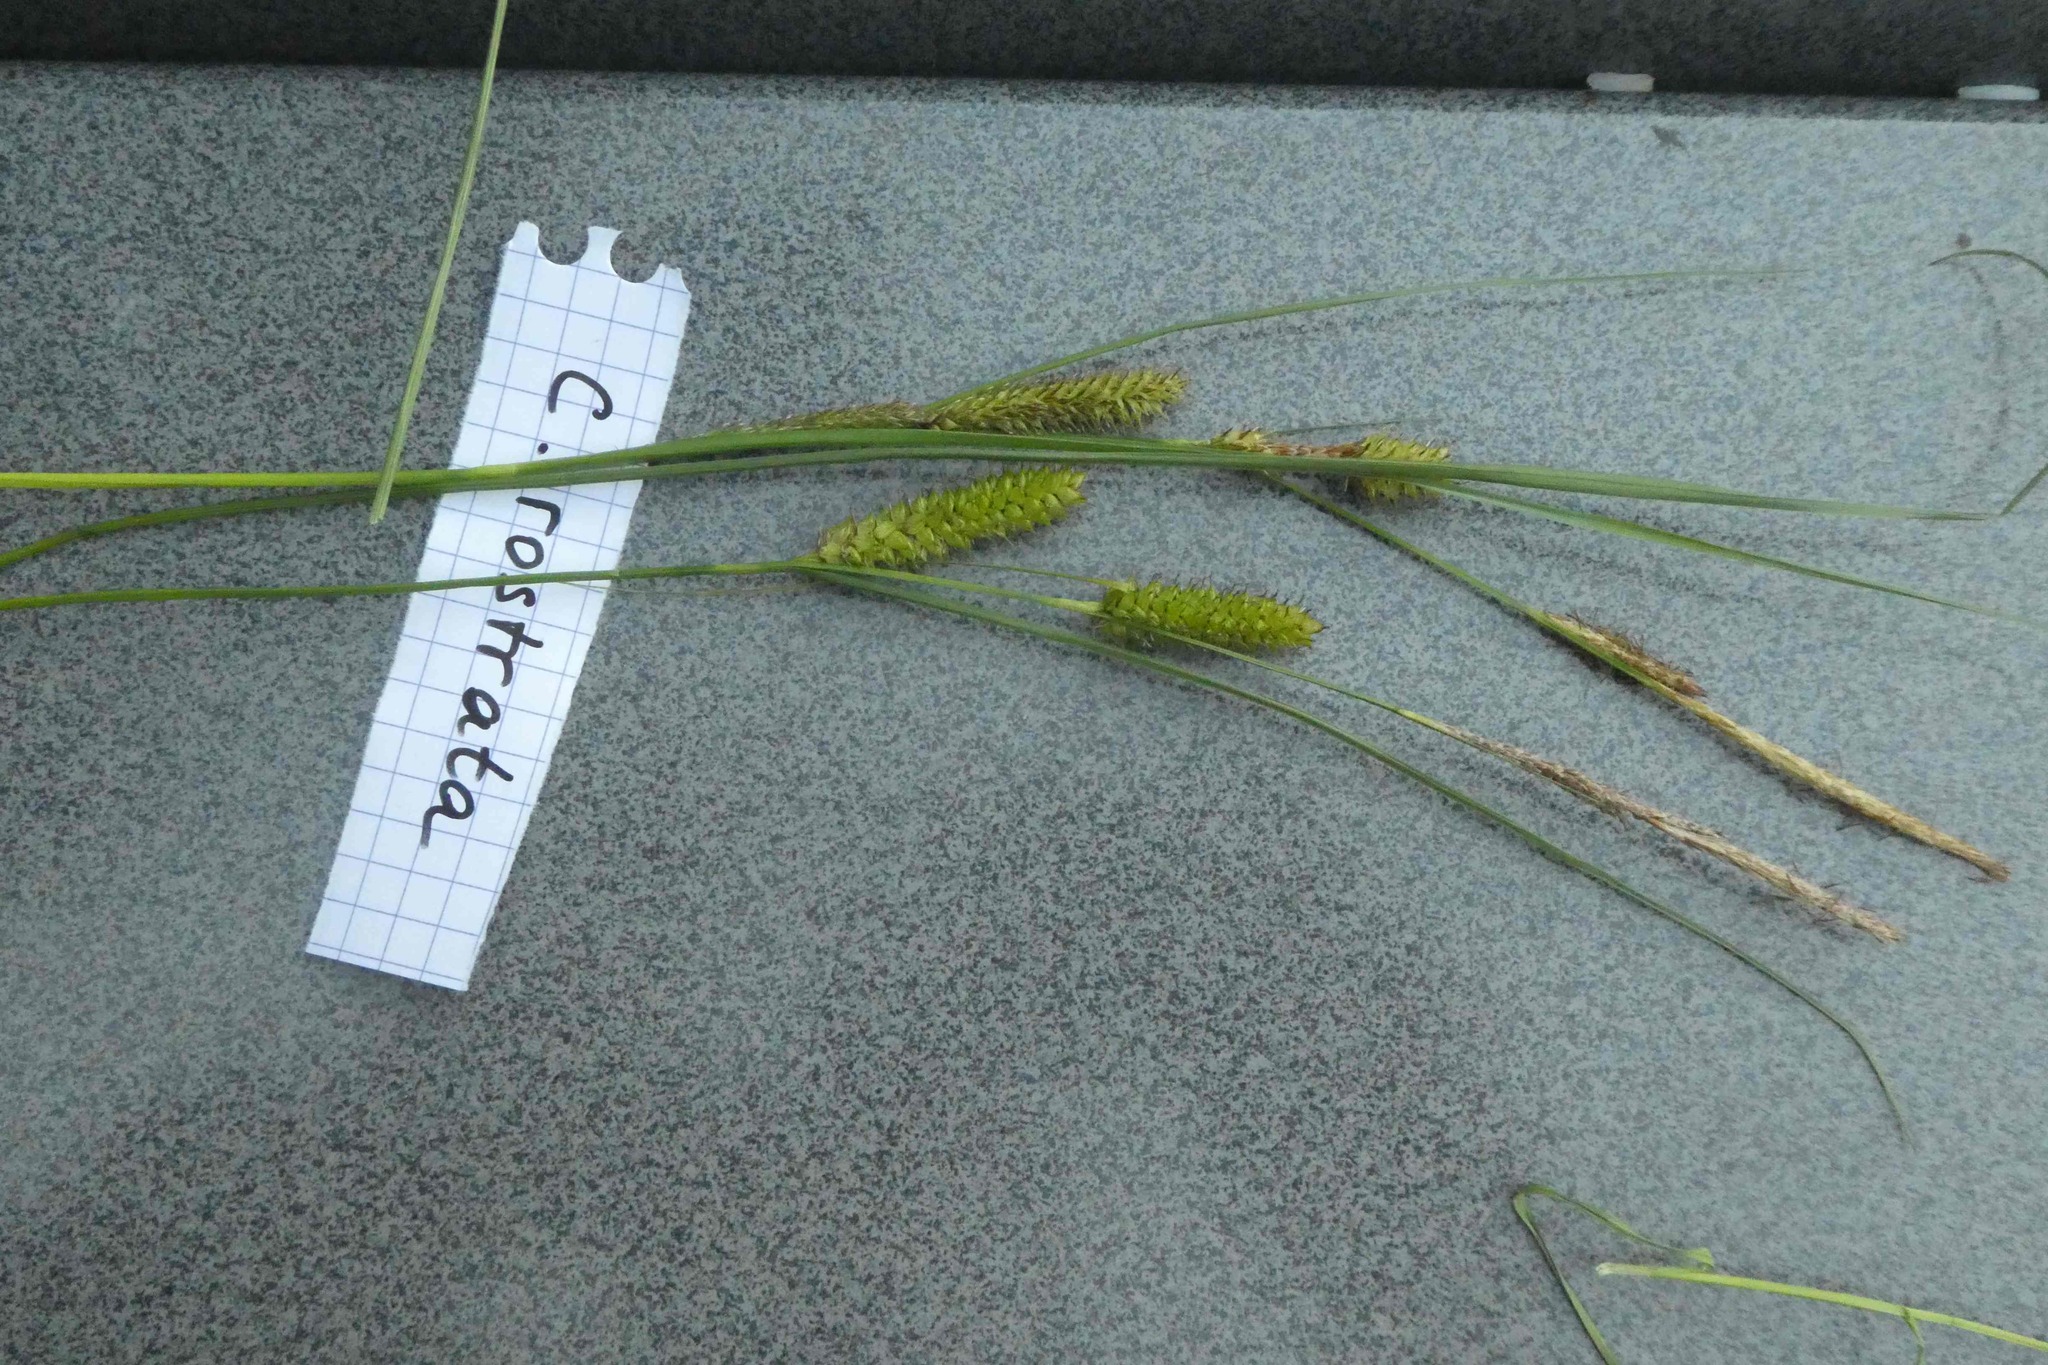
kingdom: Plantae
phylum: Tracheophyta
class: Liliopsida
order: Poales
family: Cyperaceae
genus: Carex
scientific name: Carex rostrata
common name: Bottle sedge
